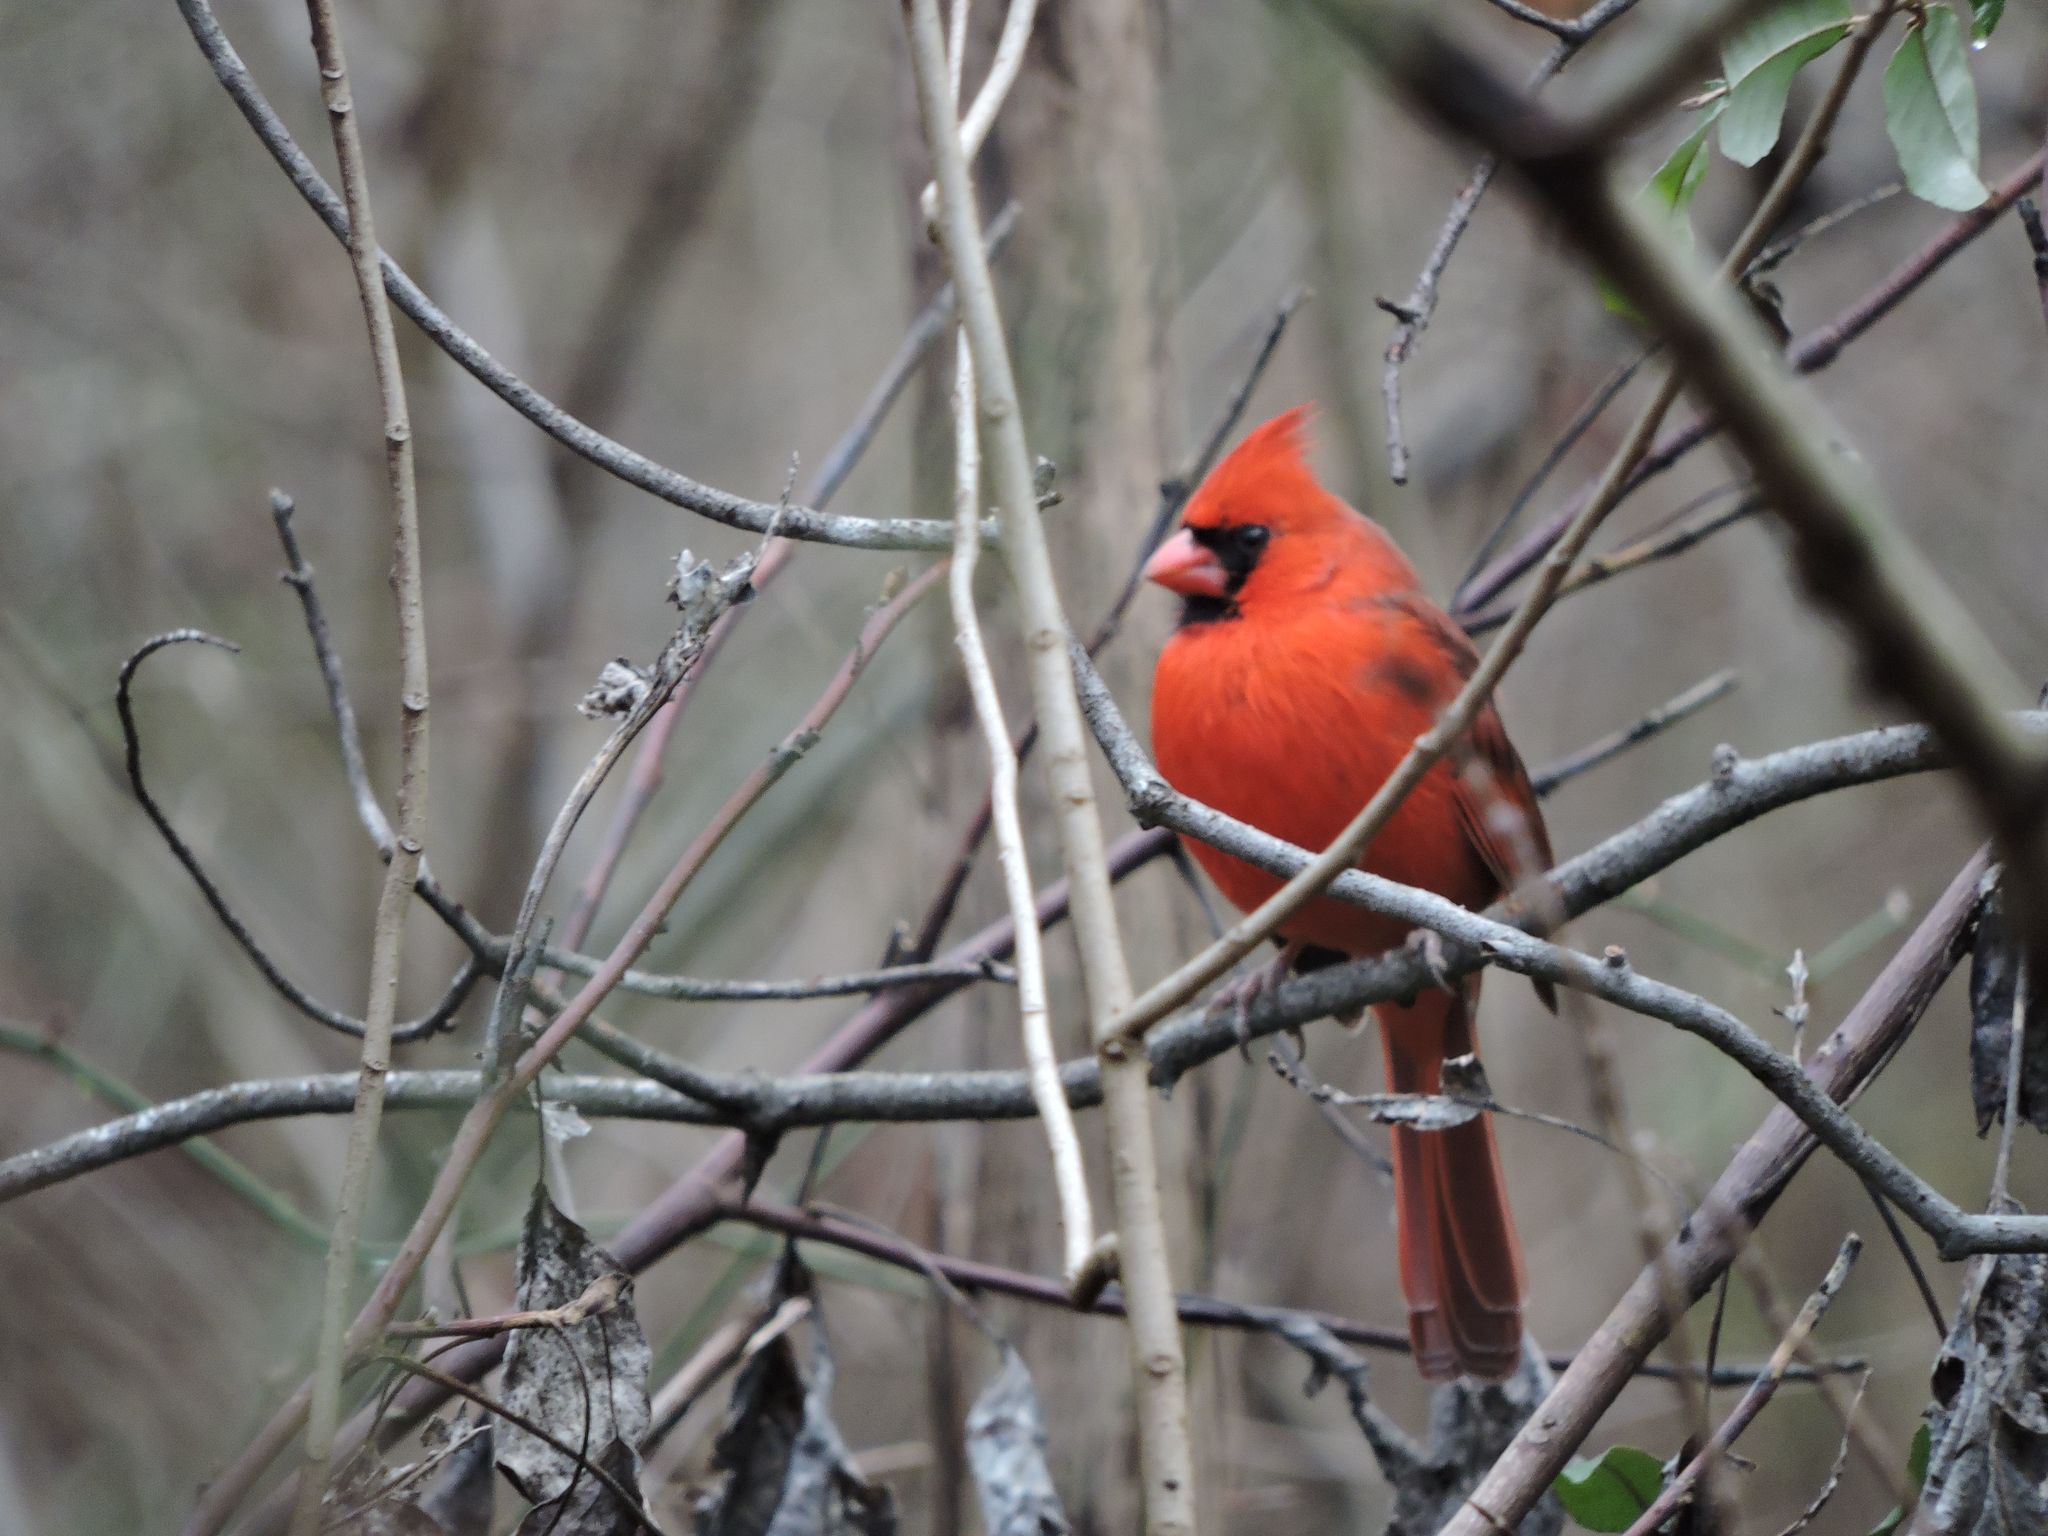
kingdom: Animalia
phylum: Chordata
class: Aves
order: Passeriformes
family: Cardinalidae
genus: Cardinalis
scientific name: Cardinalis cardinalis
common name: Northern cardinal
